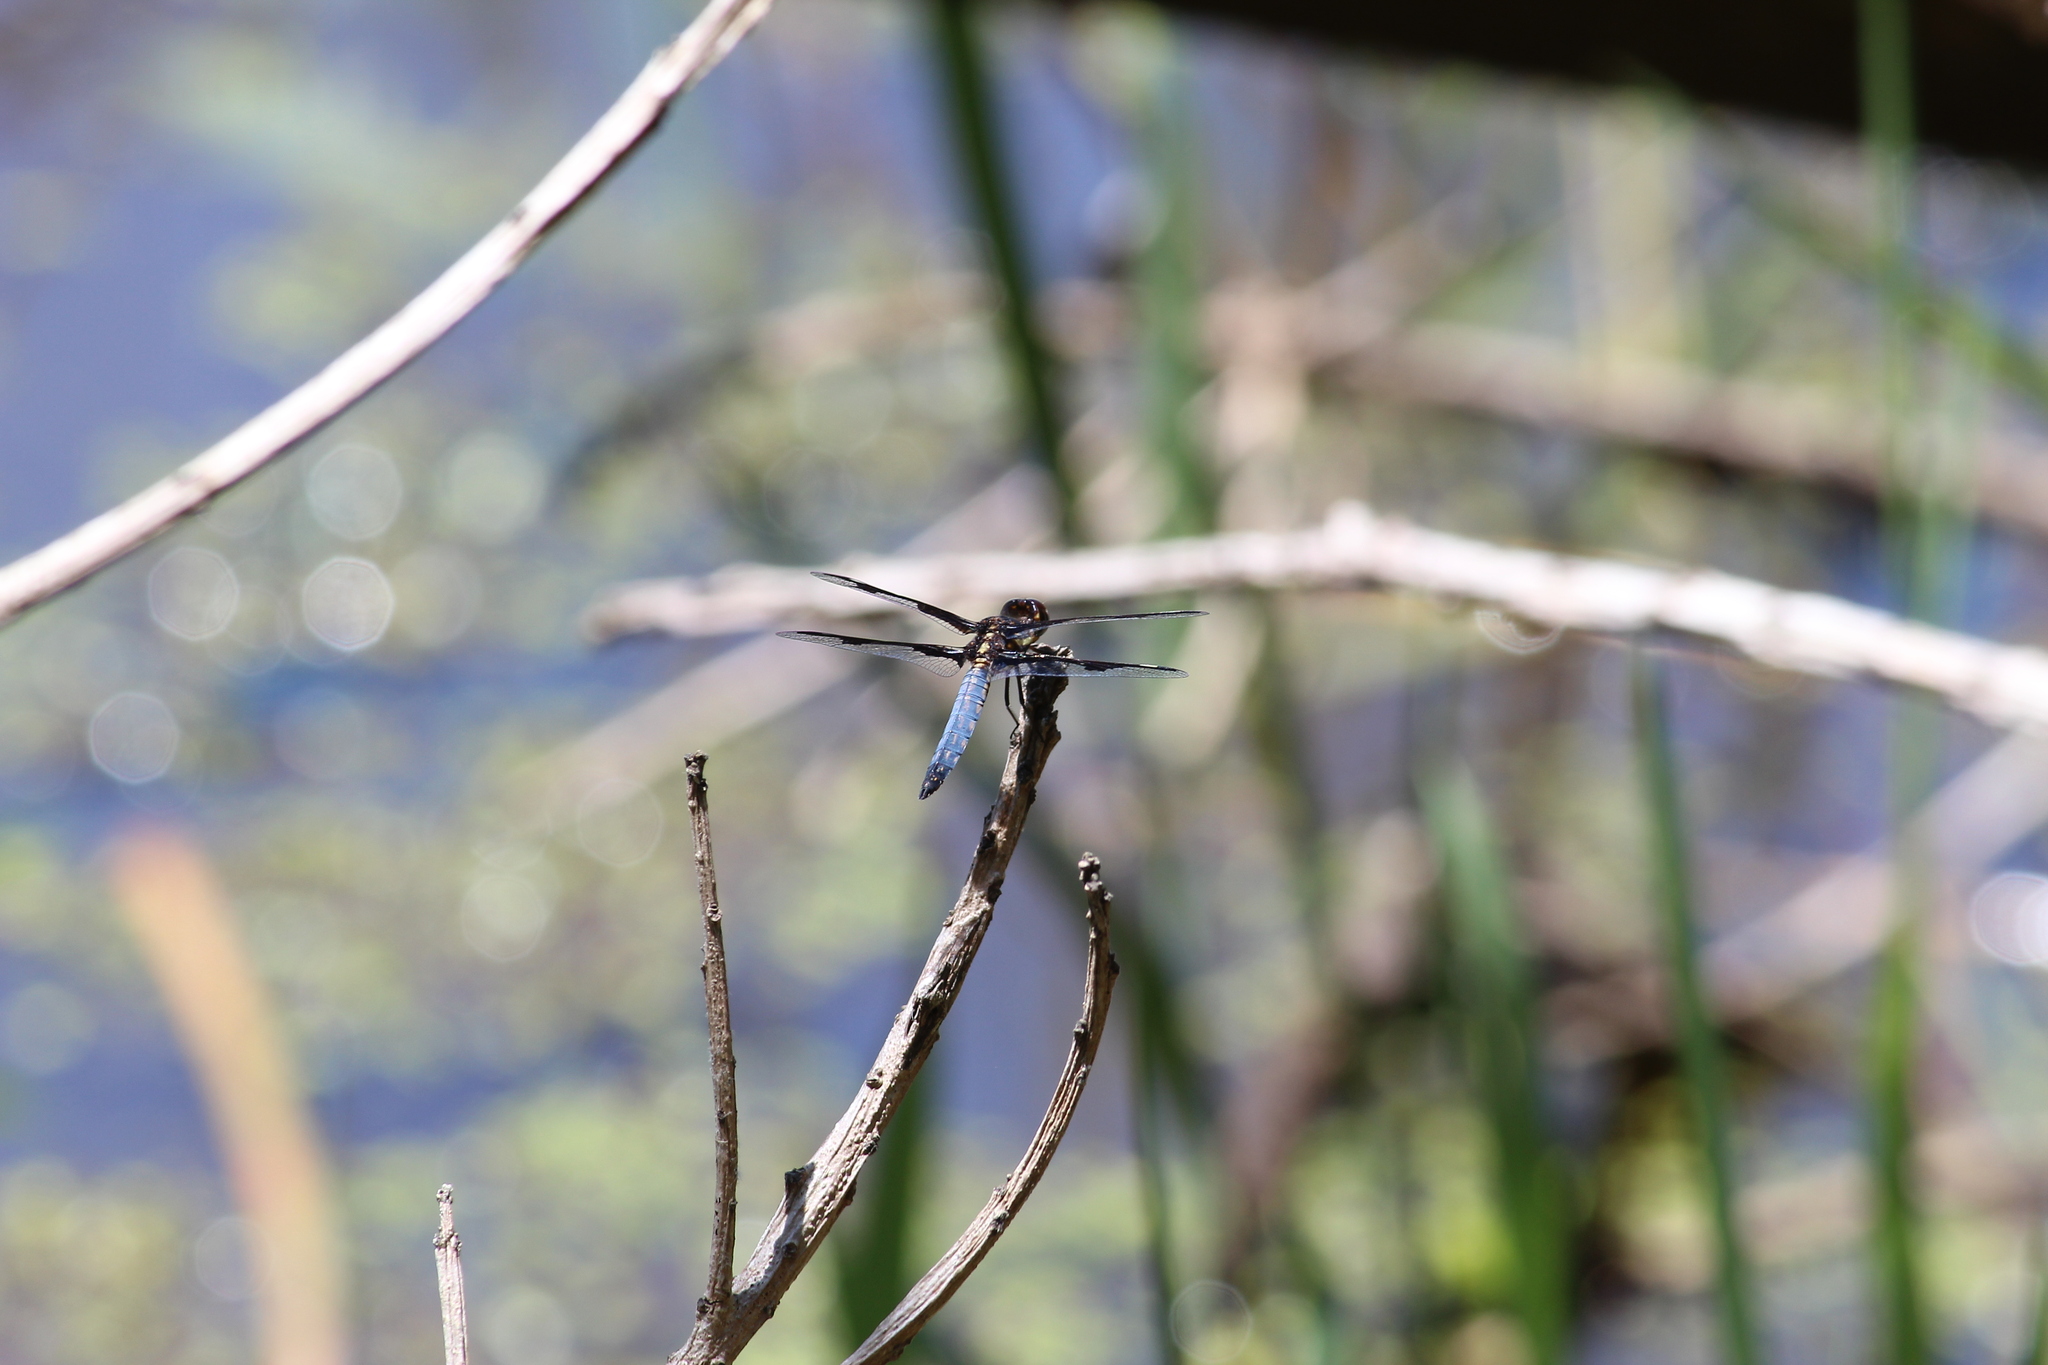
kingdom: Animalia
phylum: Arthropoda
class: Insecta
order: Odonata
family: Libellulidae
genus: Palpopleura
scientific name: Palpopleura portia
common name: Portia widow
